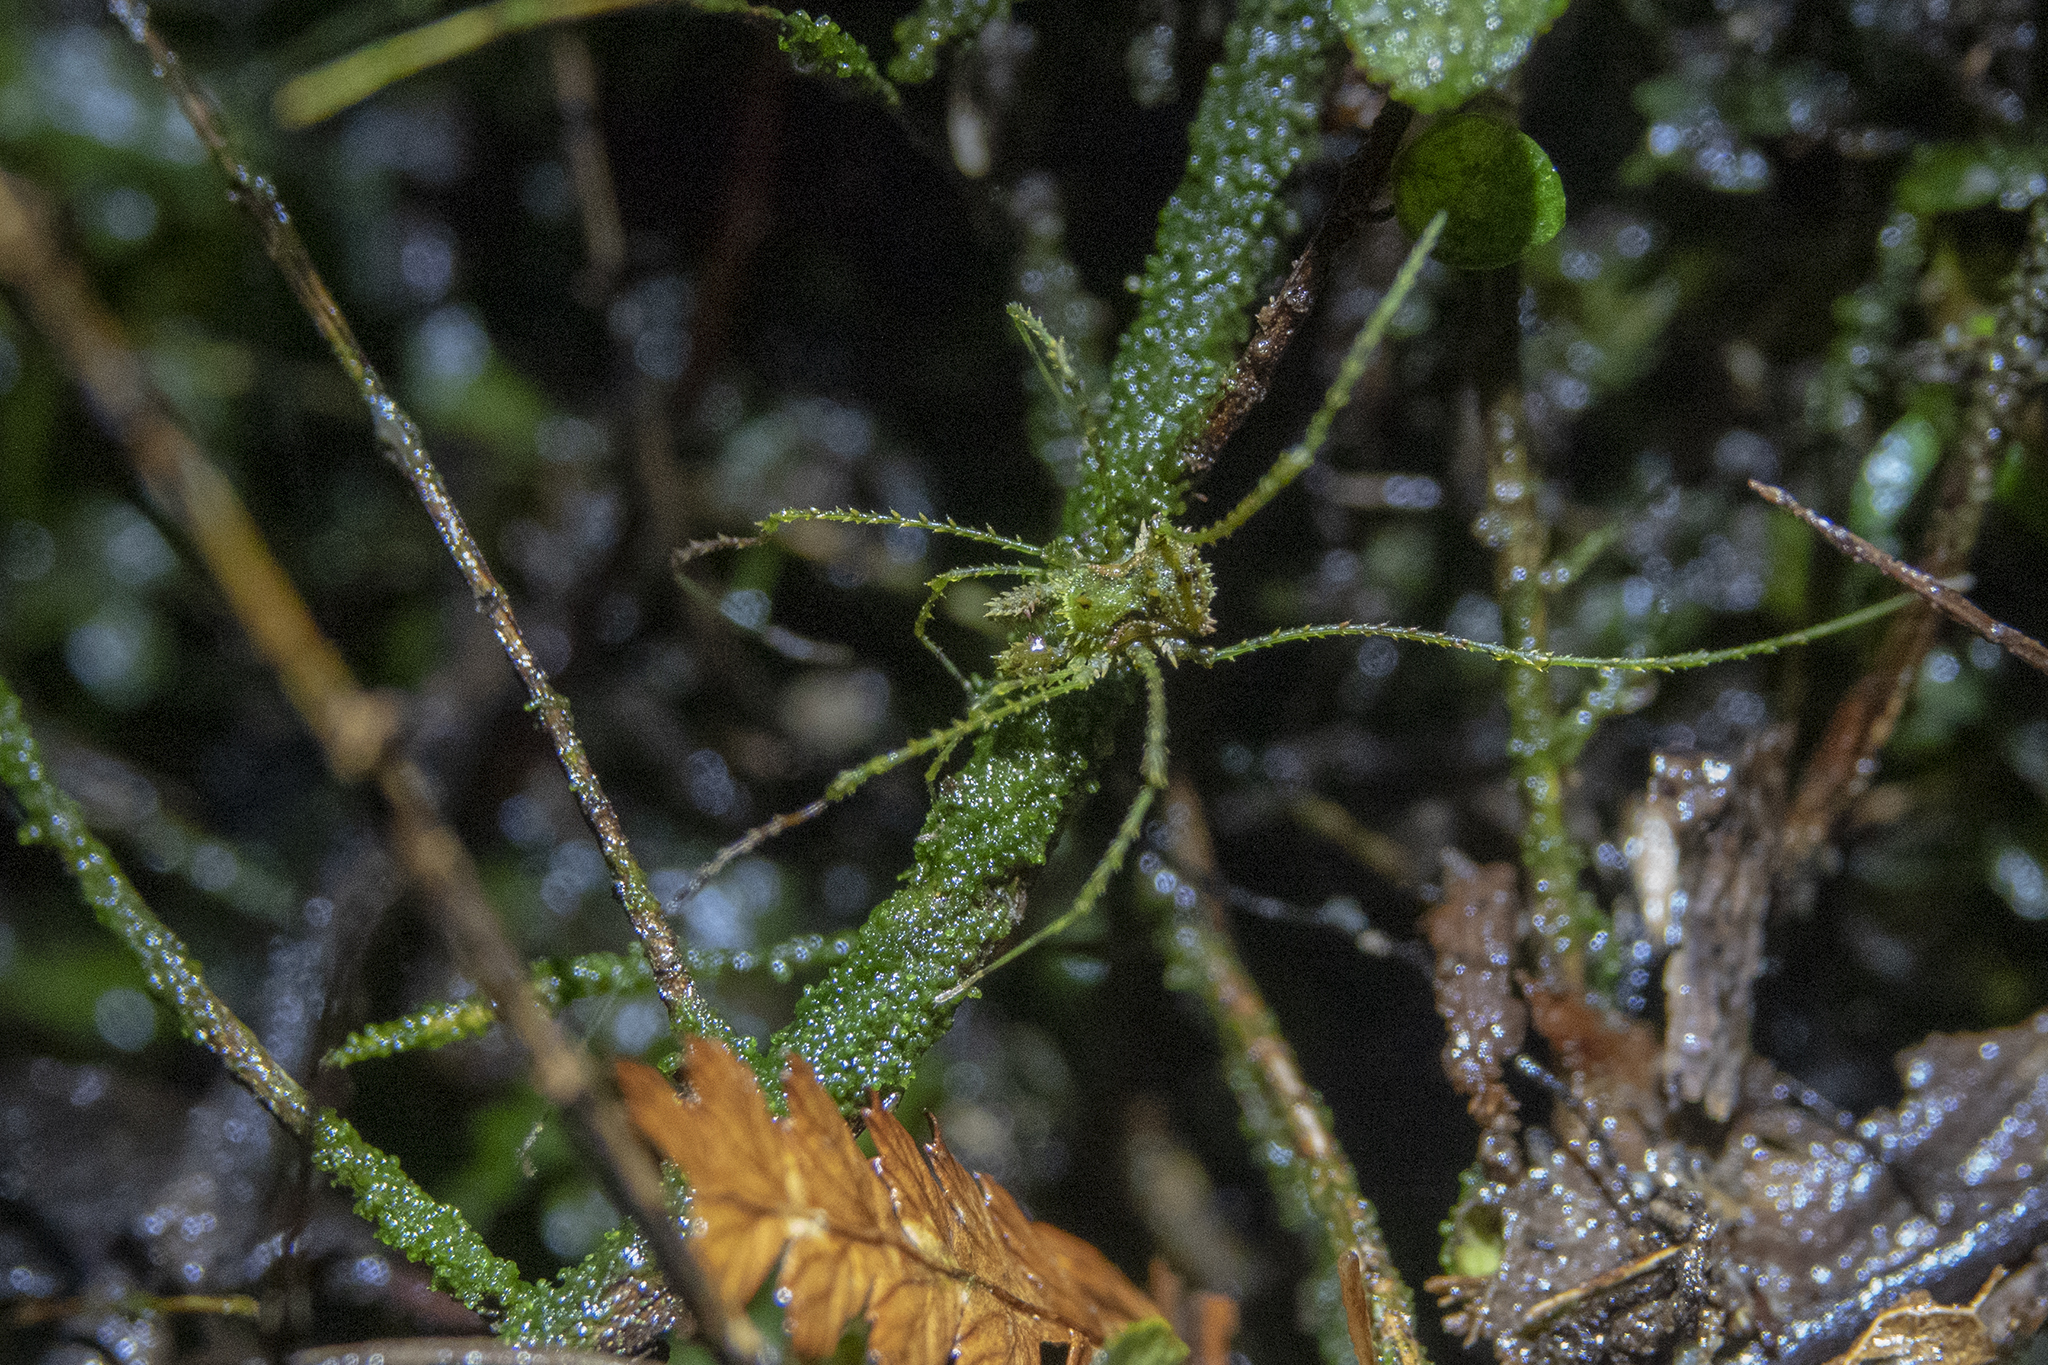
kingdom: Animalia
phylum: Arthropoda
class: Arachnida
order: Opiliones
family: Triaenonychidae
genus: Algidia
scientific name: Algidia viridata
